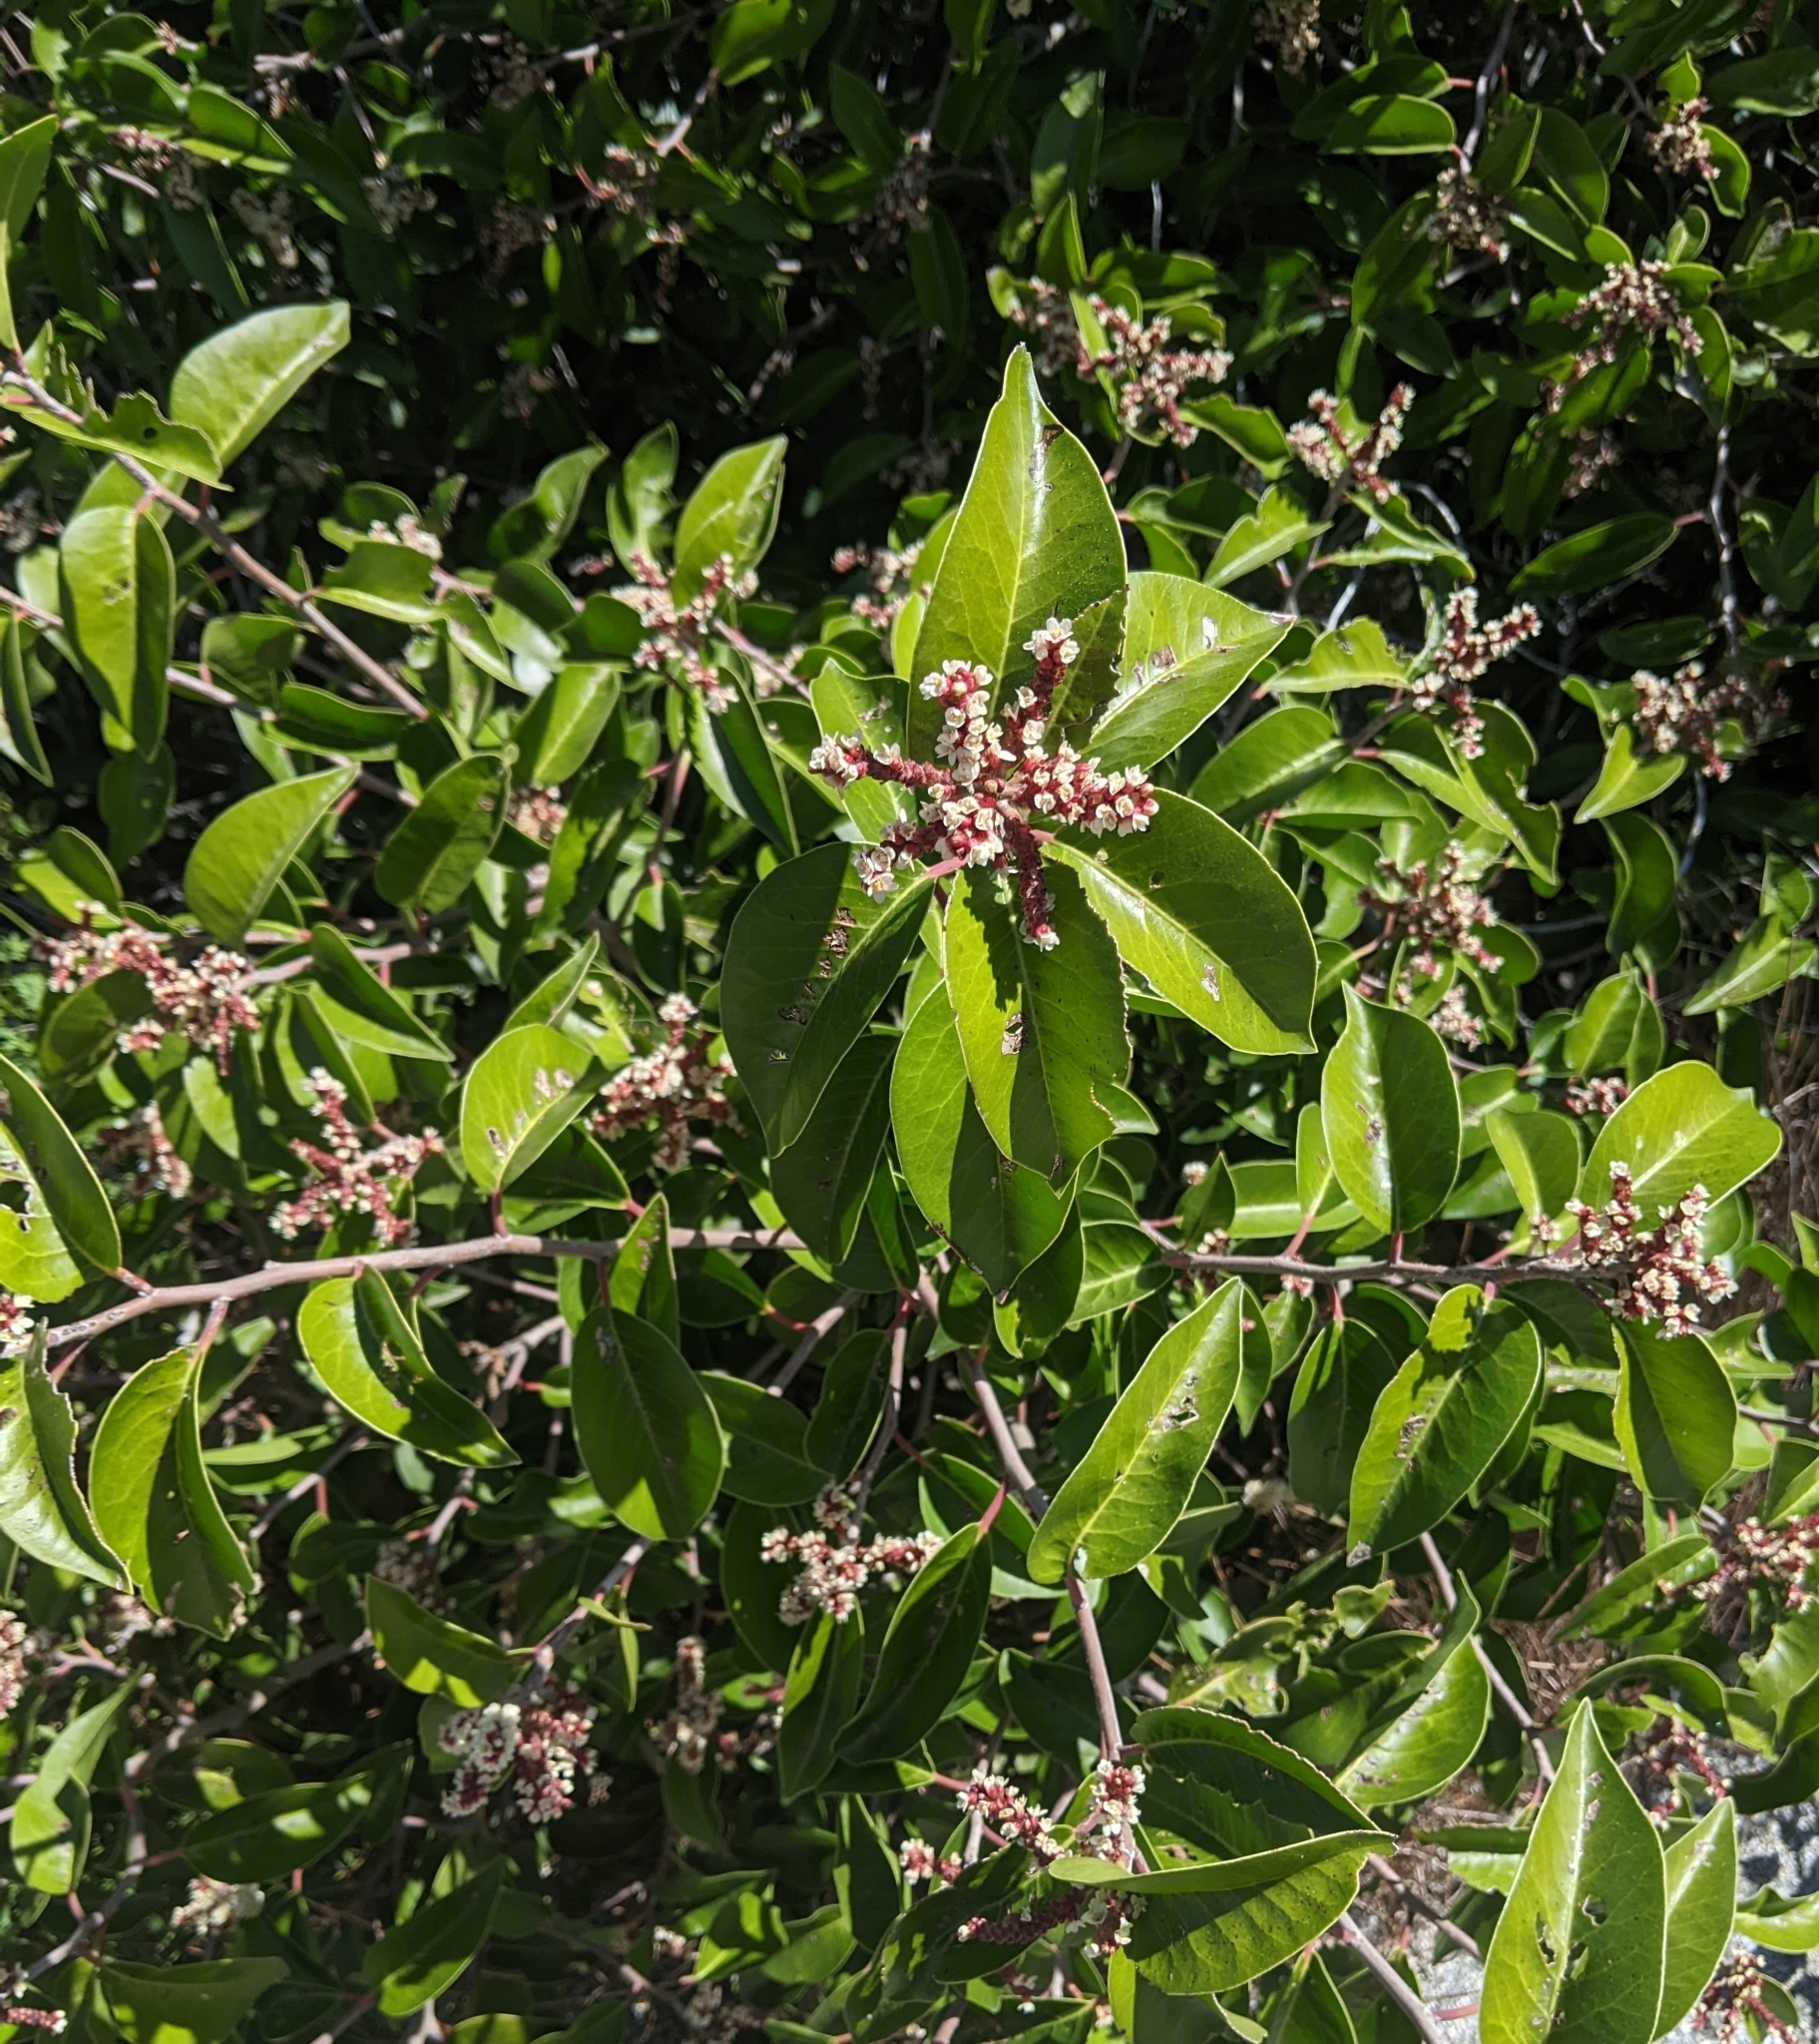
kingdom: Plantae
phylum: Tracheophyta
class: Magnoliopsida
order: Sapindales
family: Anacardiaceae
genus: Rhus
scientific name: Rhus ovata
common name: Sugar sumac
